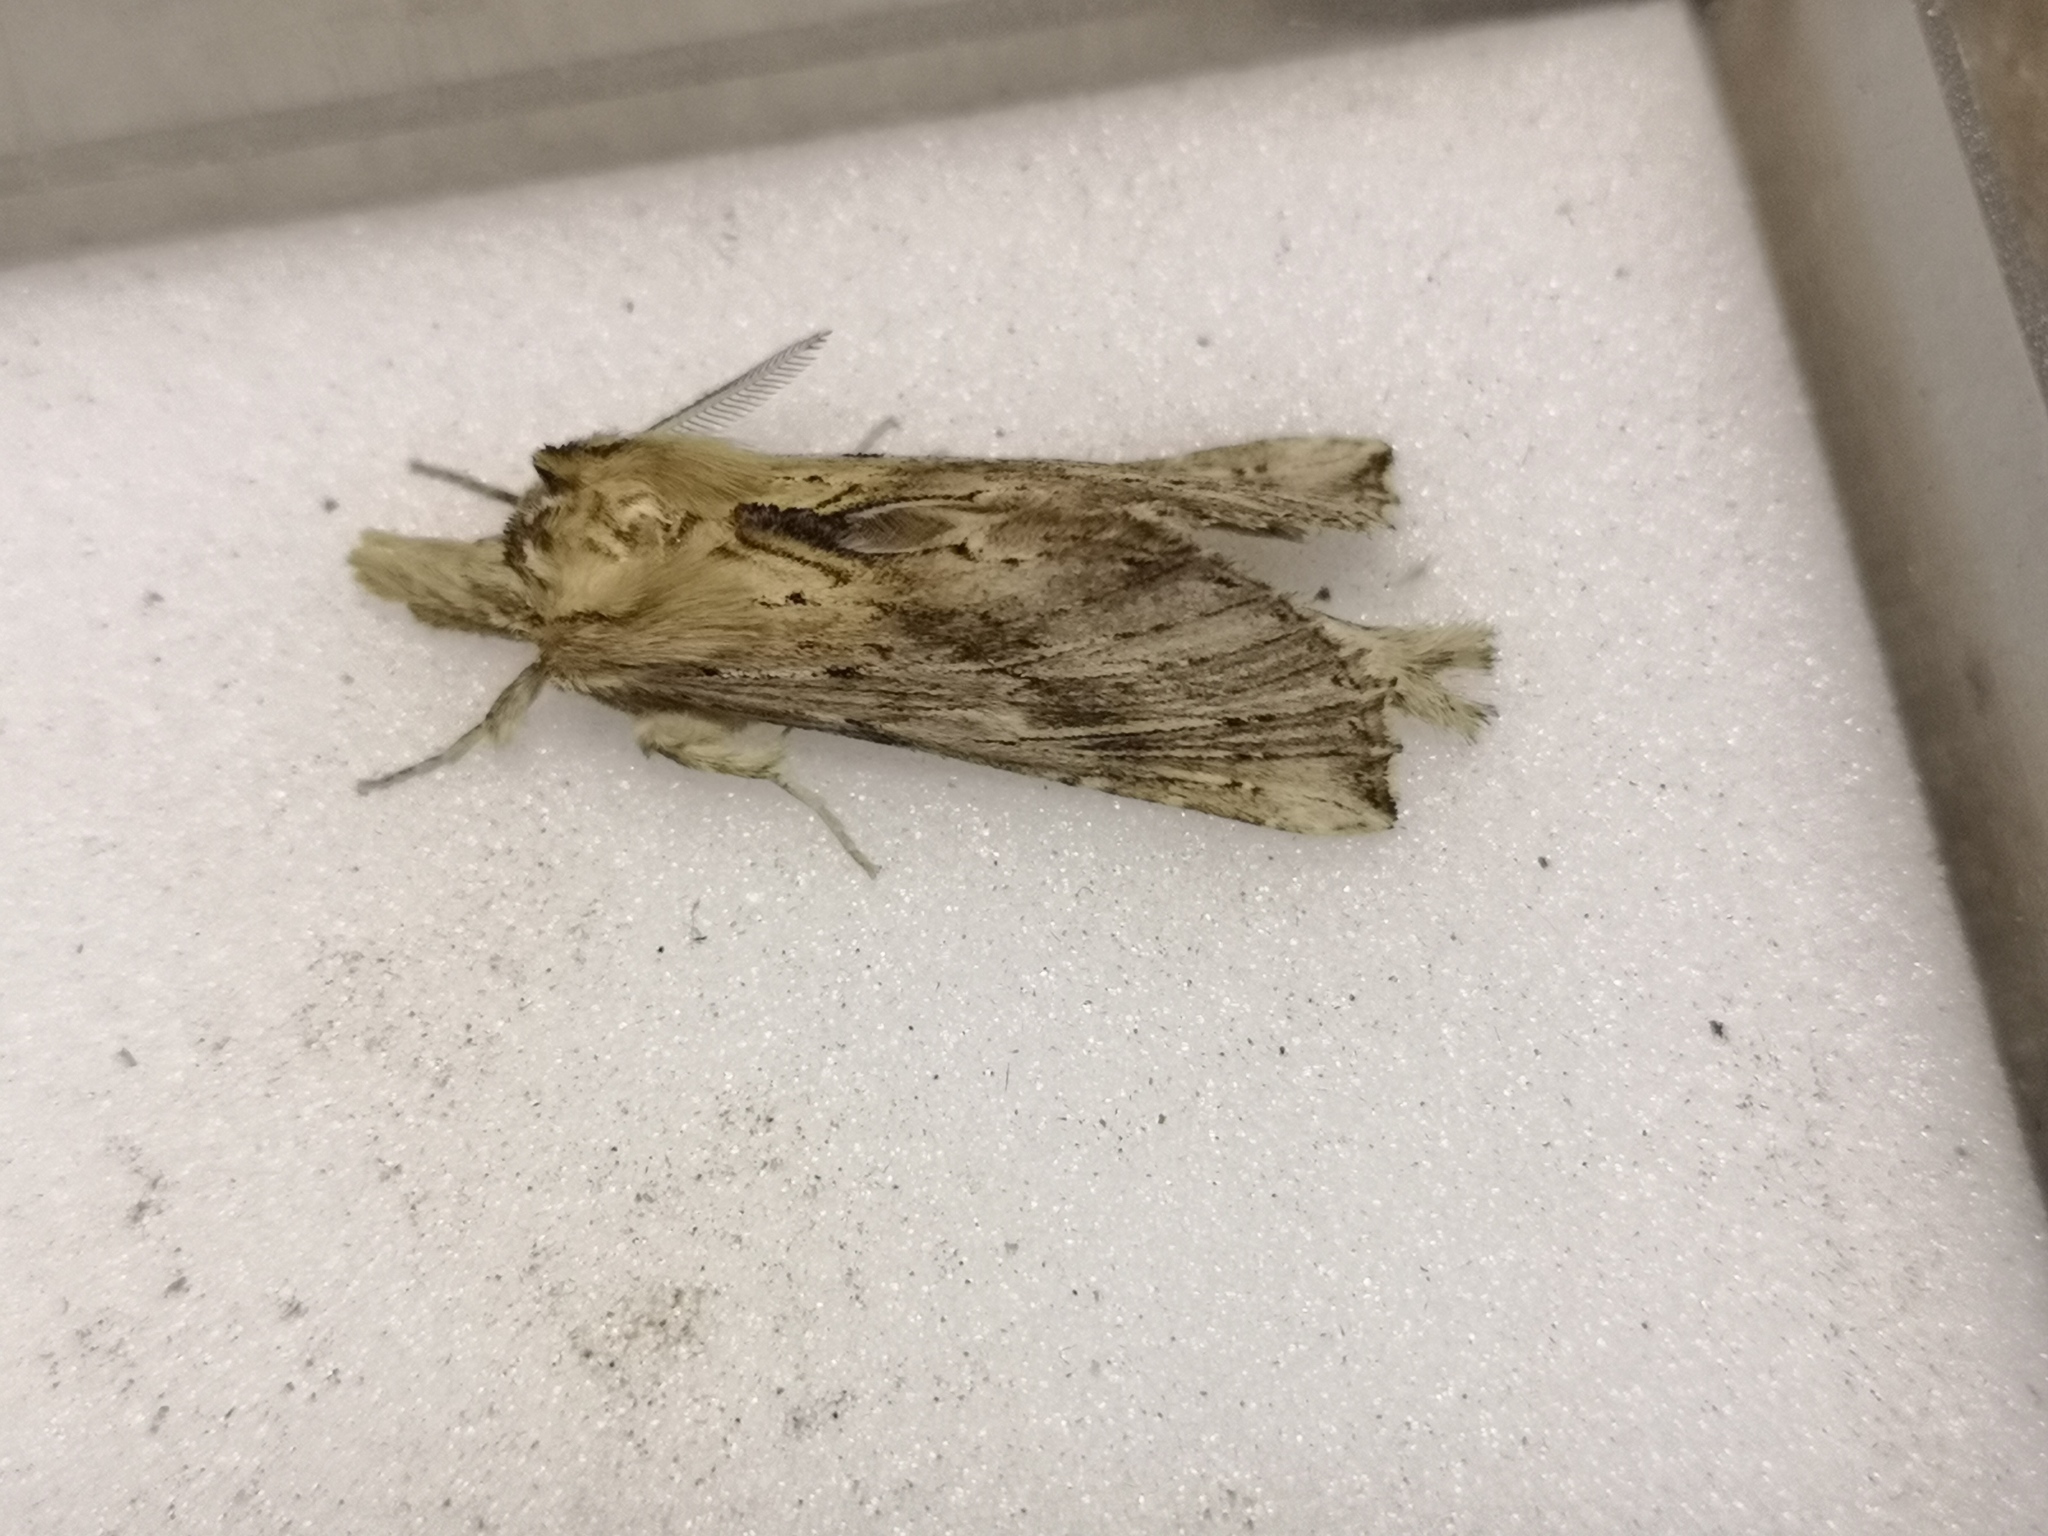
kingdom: Animalia
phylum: Arthropoda
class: Insecta
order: Lepidoptera
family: Notodontidae
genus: Pterostoma
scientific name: Pterostoma palpina
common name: Pale prominent
